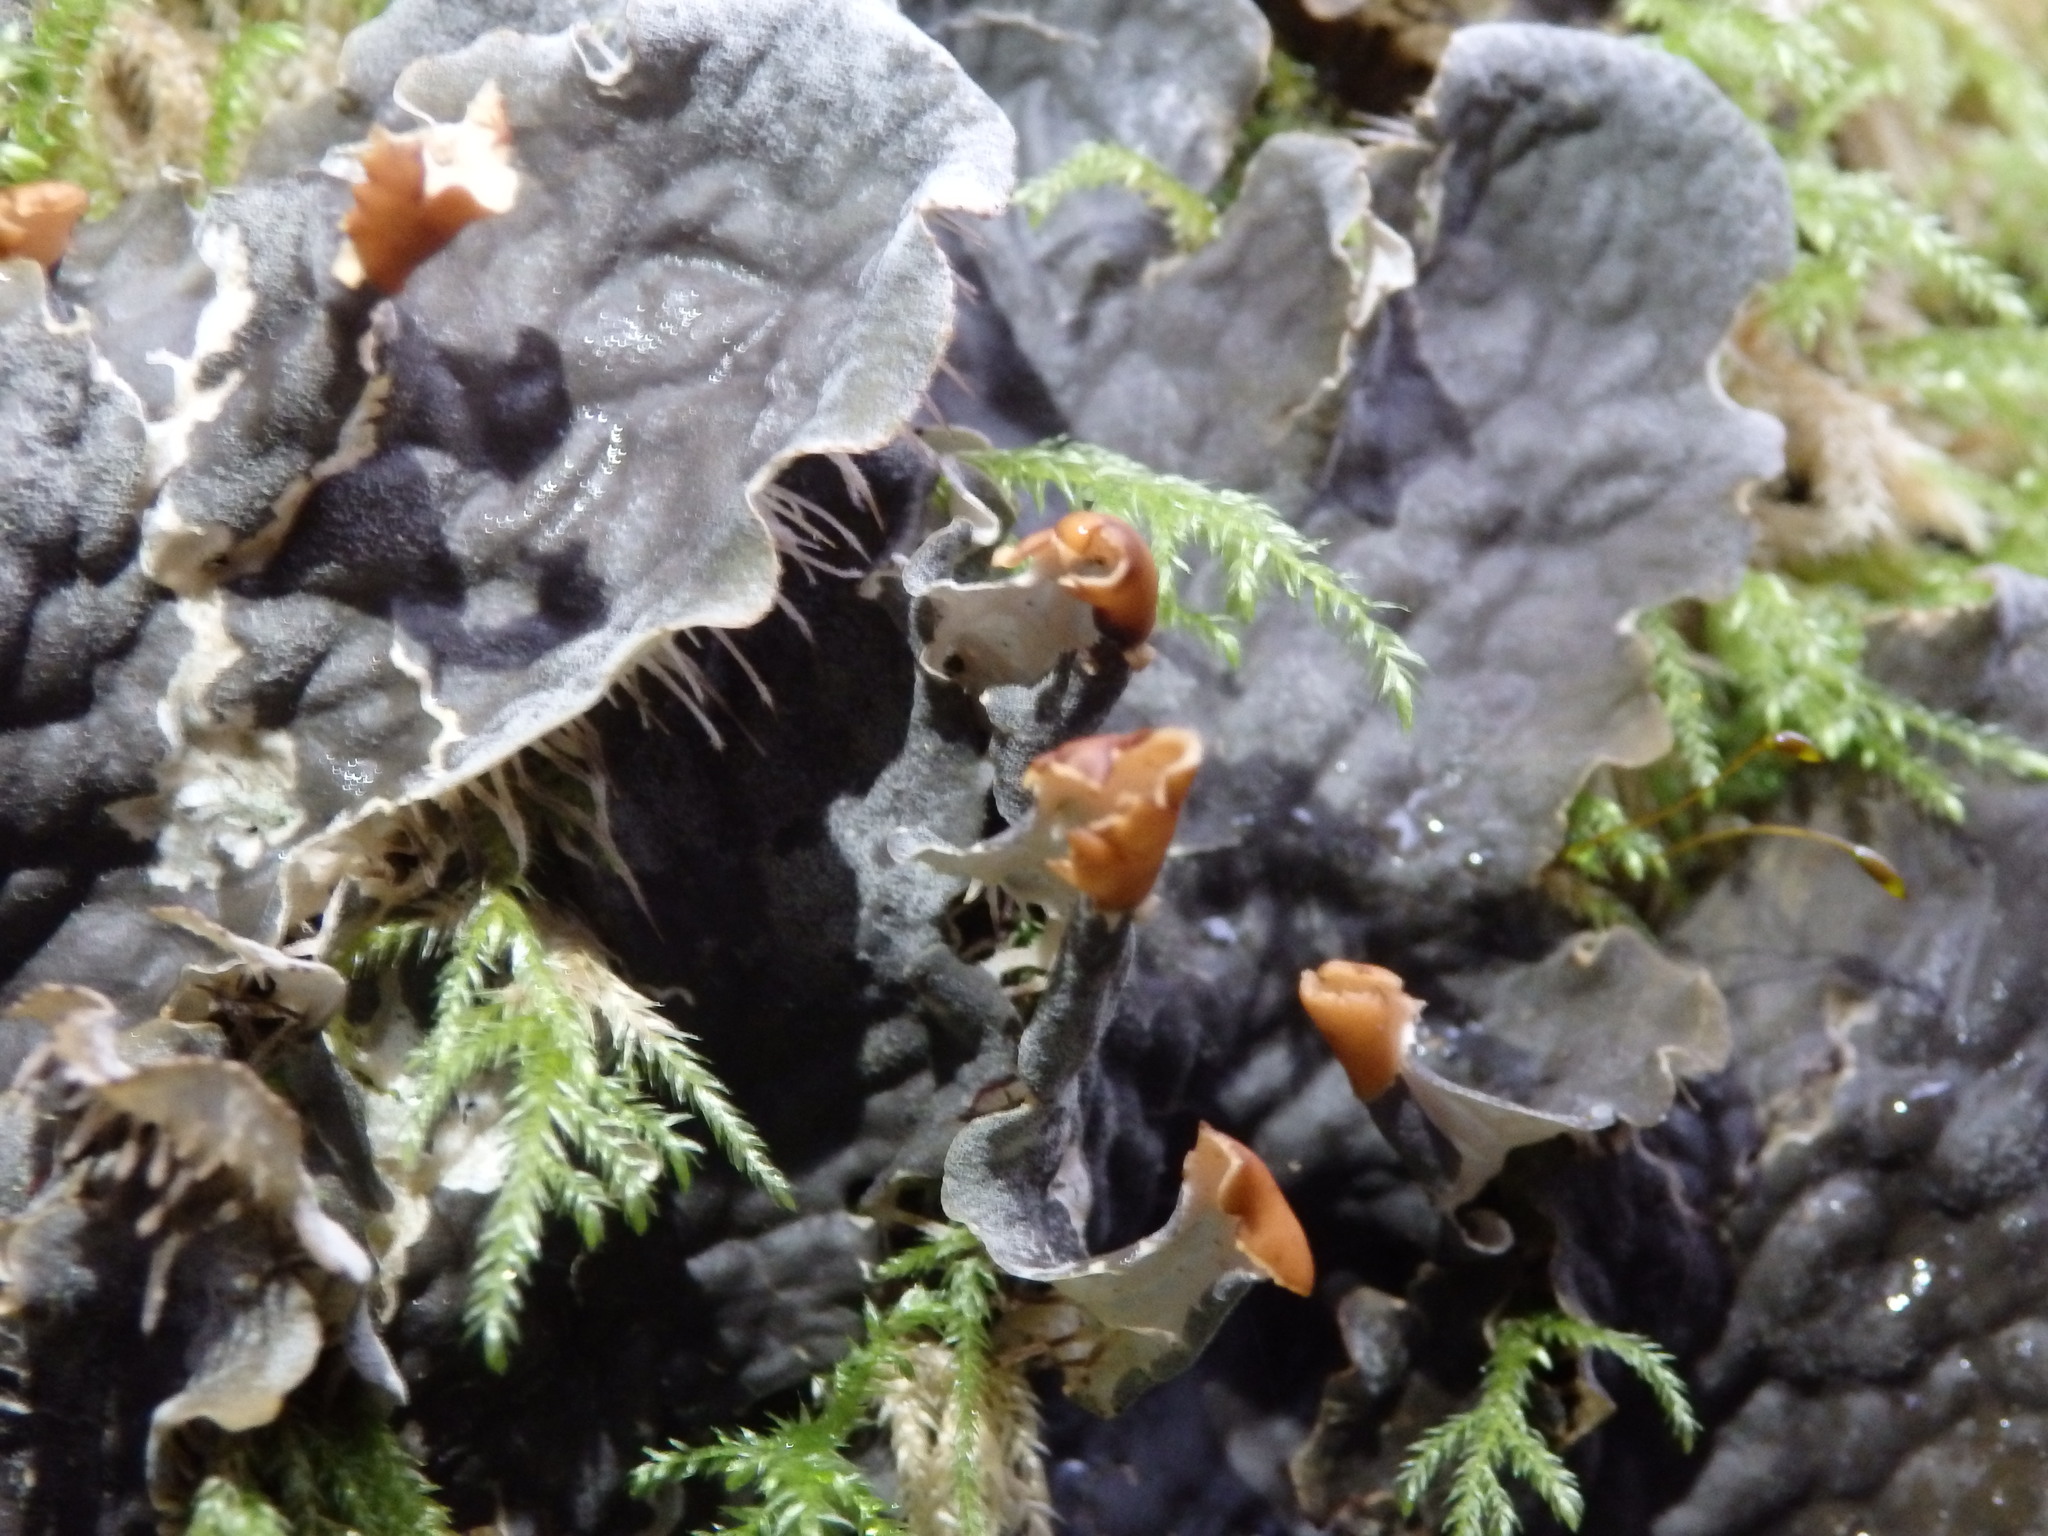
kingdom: Fungi
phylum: Ascomycota
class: Lecanoromycetes
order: Peltigerales
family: Peltigeraceae
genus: Peltigera
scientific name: Peltigera membranacea
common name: Membranous pelt lichen
